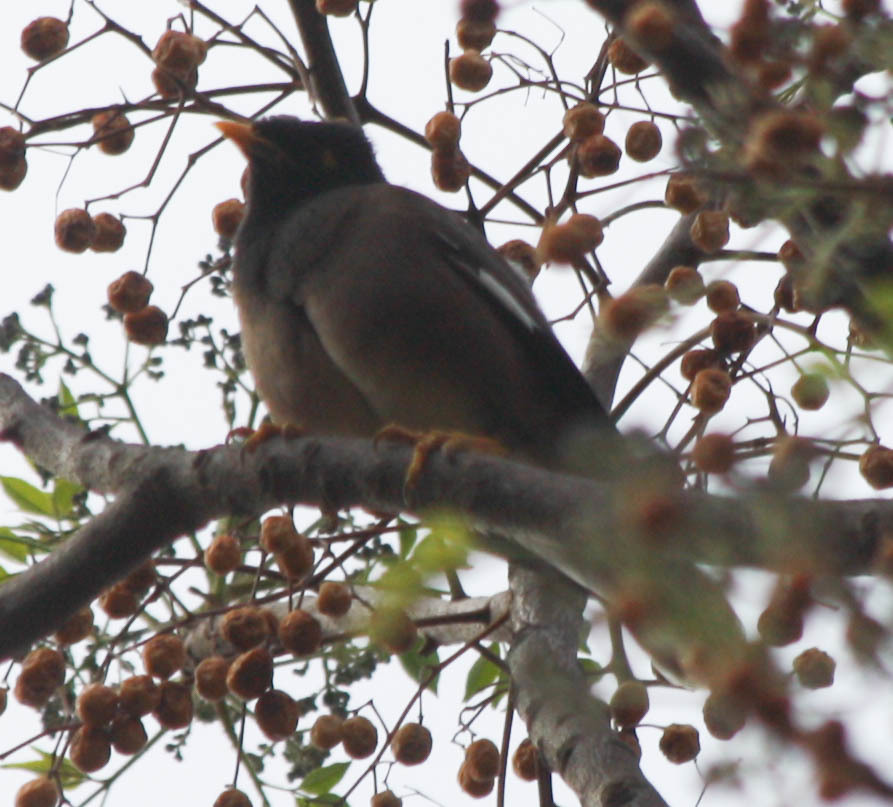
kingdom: Animalia
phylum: Chordata
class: Aves
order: Passeriformes
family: Sturnidae
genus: Acridotheres
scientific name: Acridotheres tristis
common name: Common myna
